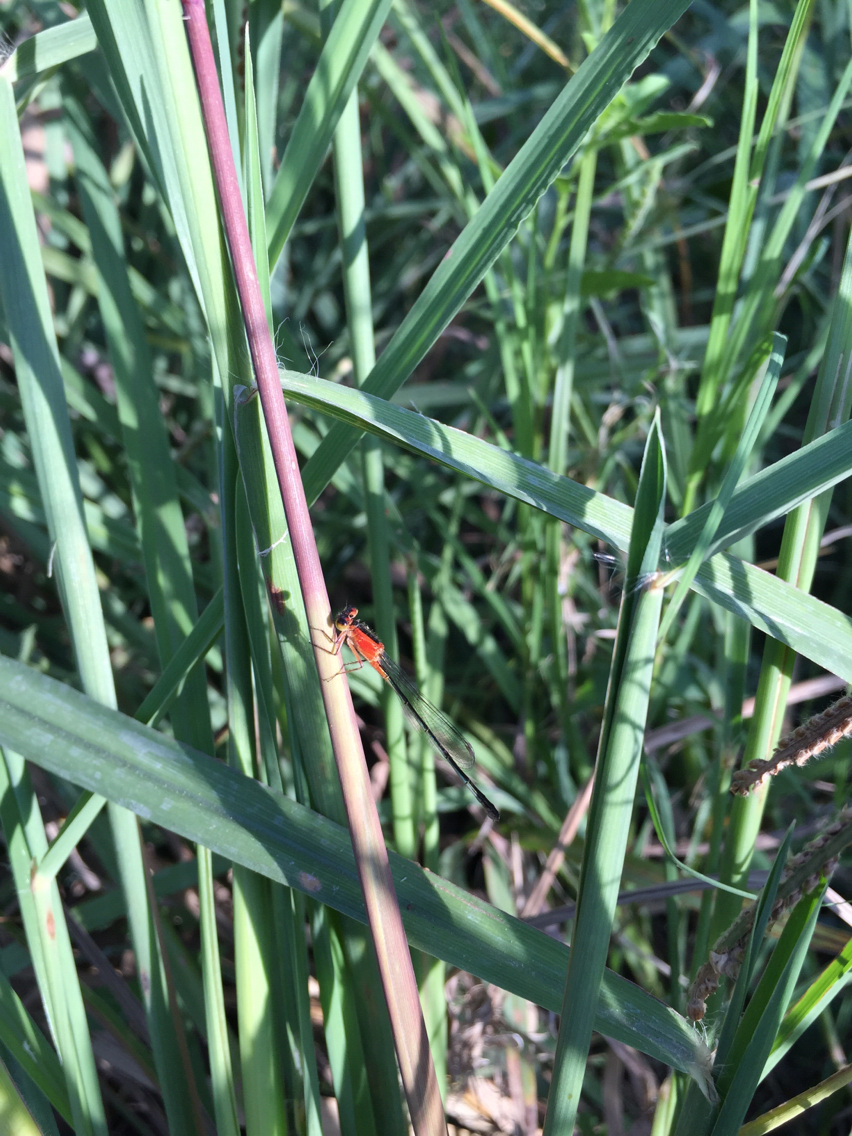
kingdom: Animalia
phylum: Arthropoda
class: Insecta
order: Odonata
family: Coenagrionidae
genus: Ischnura
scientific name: Ischnura ramburii
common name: Rambur's forktail
